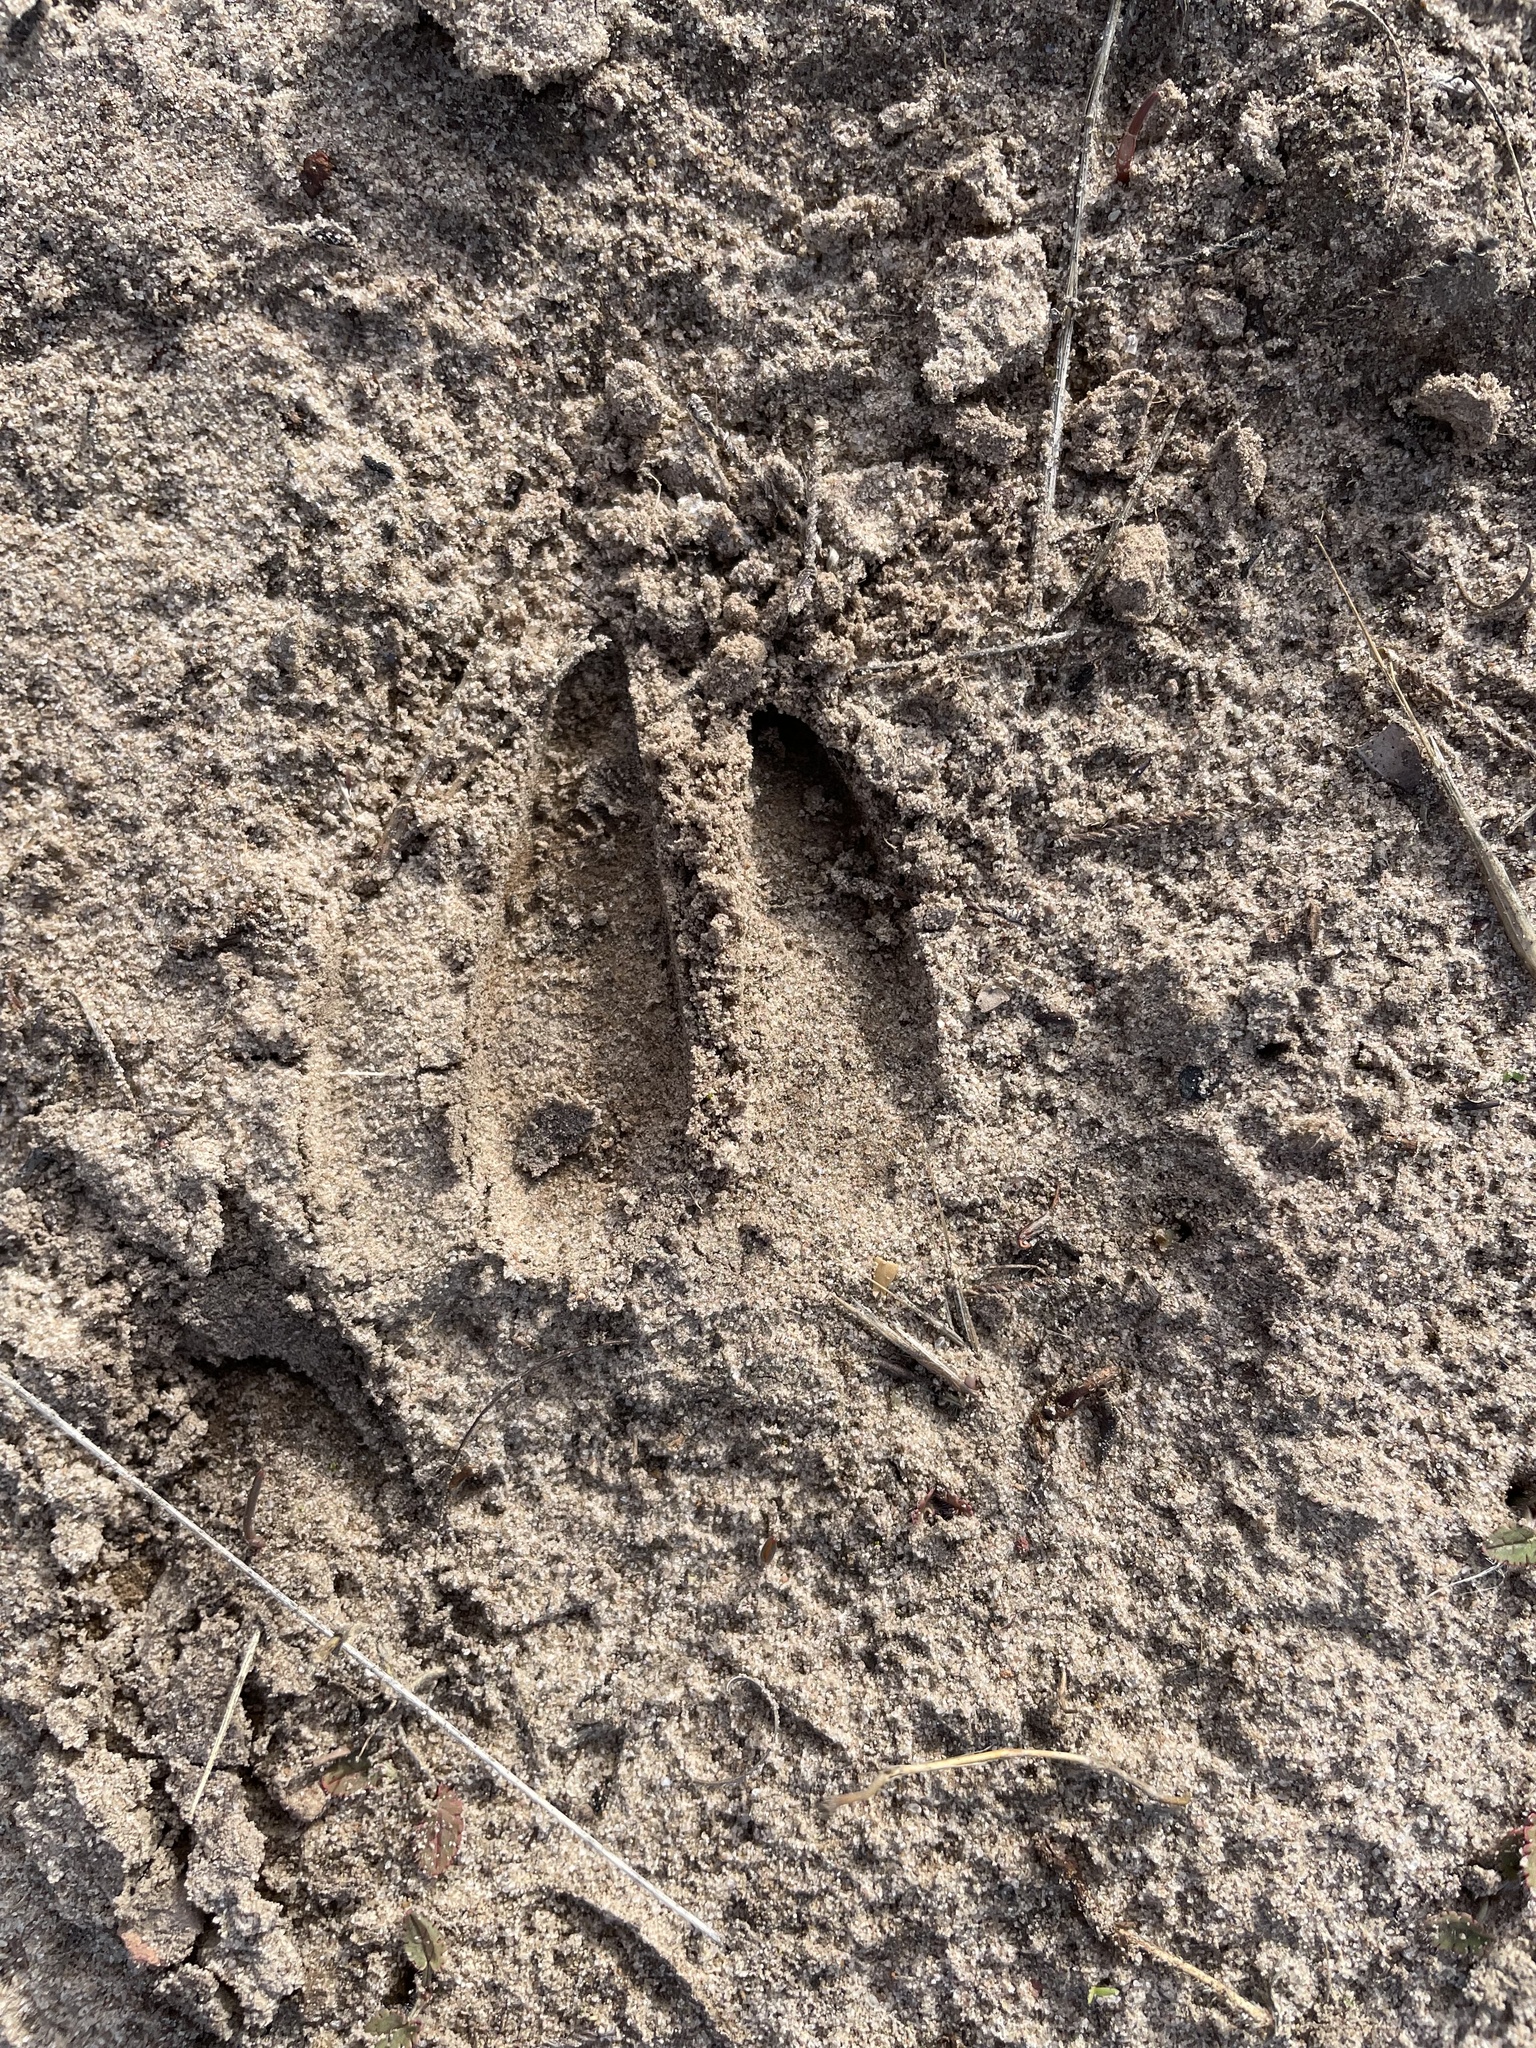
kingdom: Animalia
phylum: Chordata
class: Mammalia
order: Artiodactyla
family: Cervidae
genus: Odocoileus
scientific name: Odocoileus hemionus
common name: Mule deer
